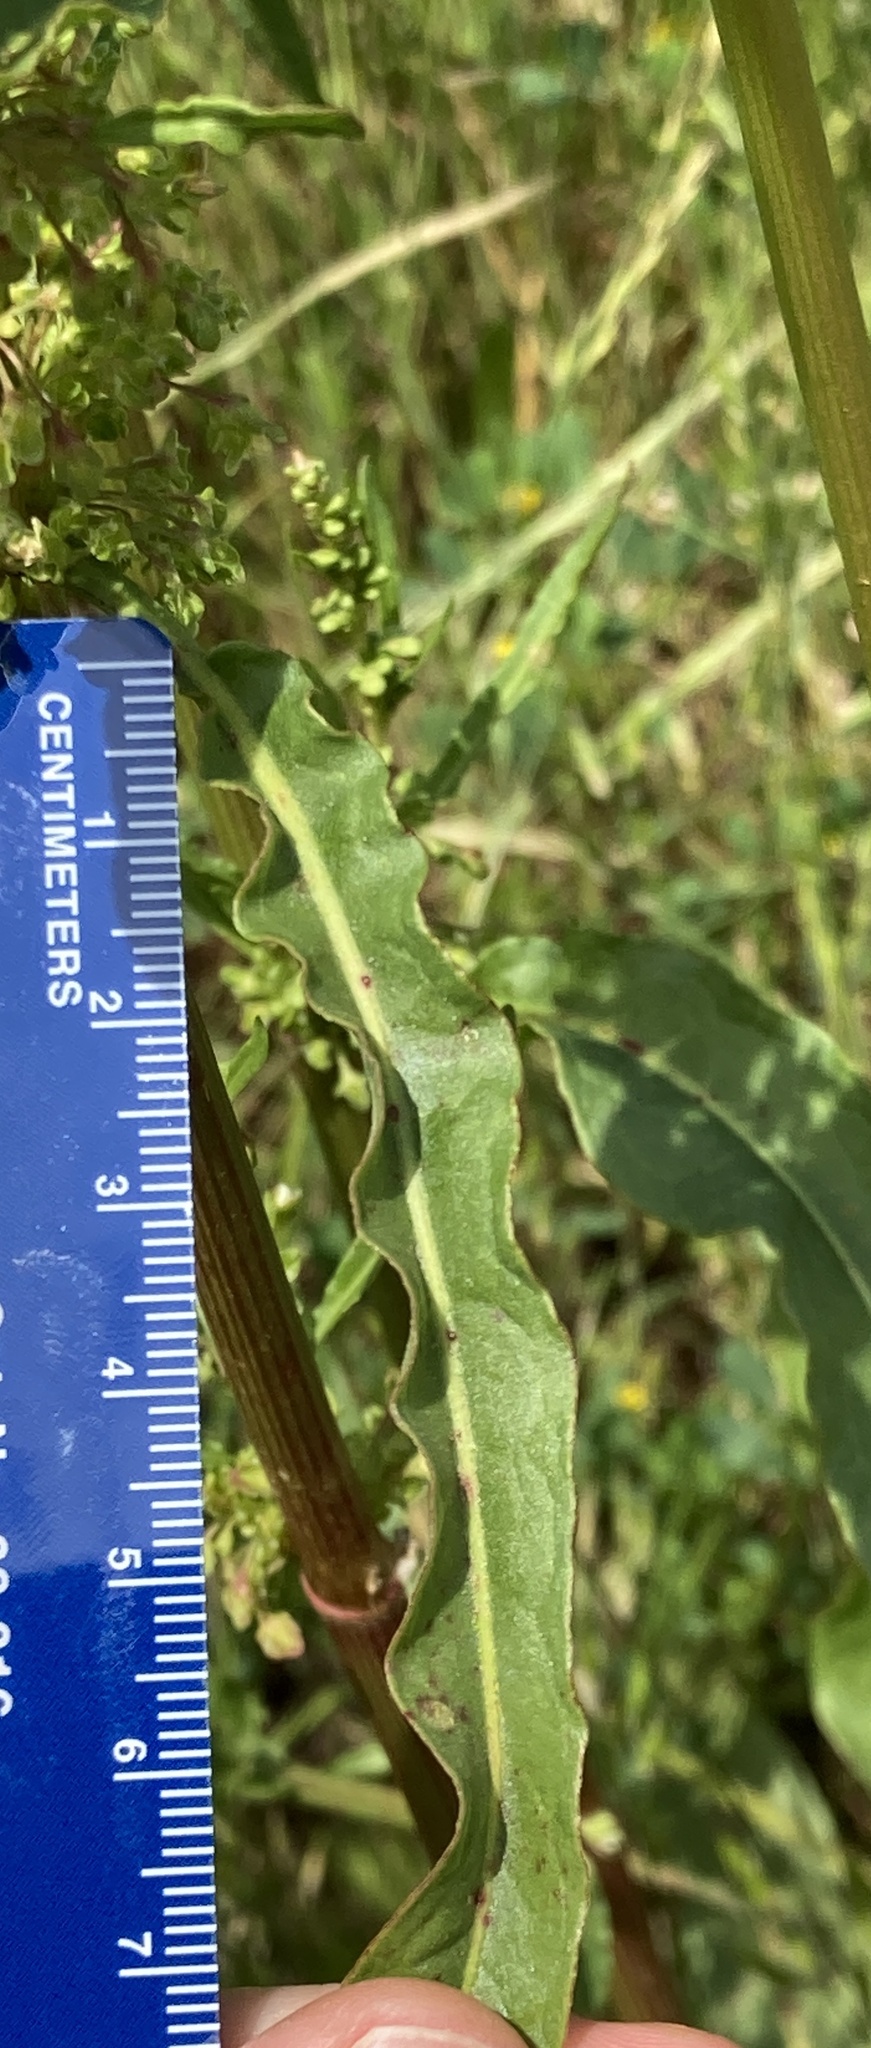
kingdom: Plantae
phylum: Tracheophyta
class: Magnoliopsida
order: Caryophyllales
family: Polygonaceae
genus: Rumex
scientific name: Rumex crispus
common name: Curled dock
